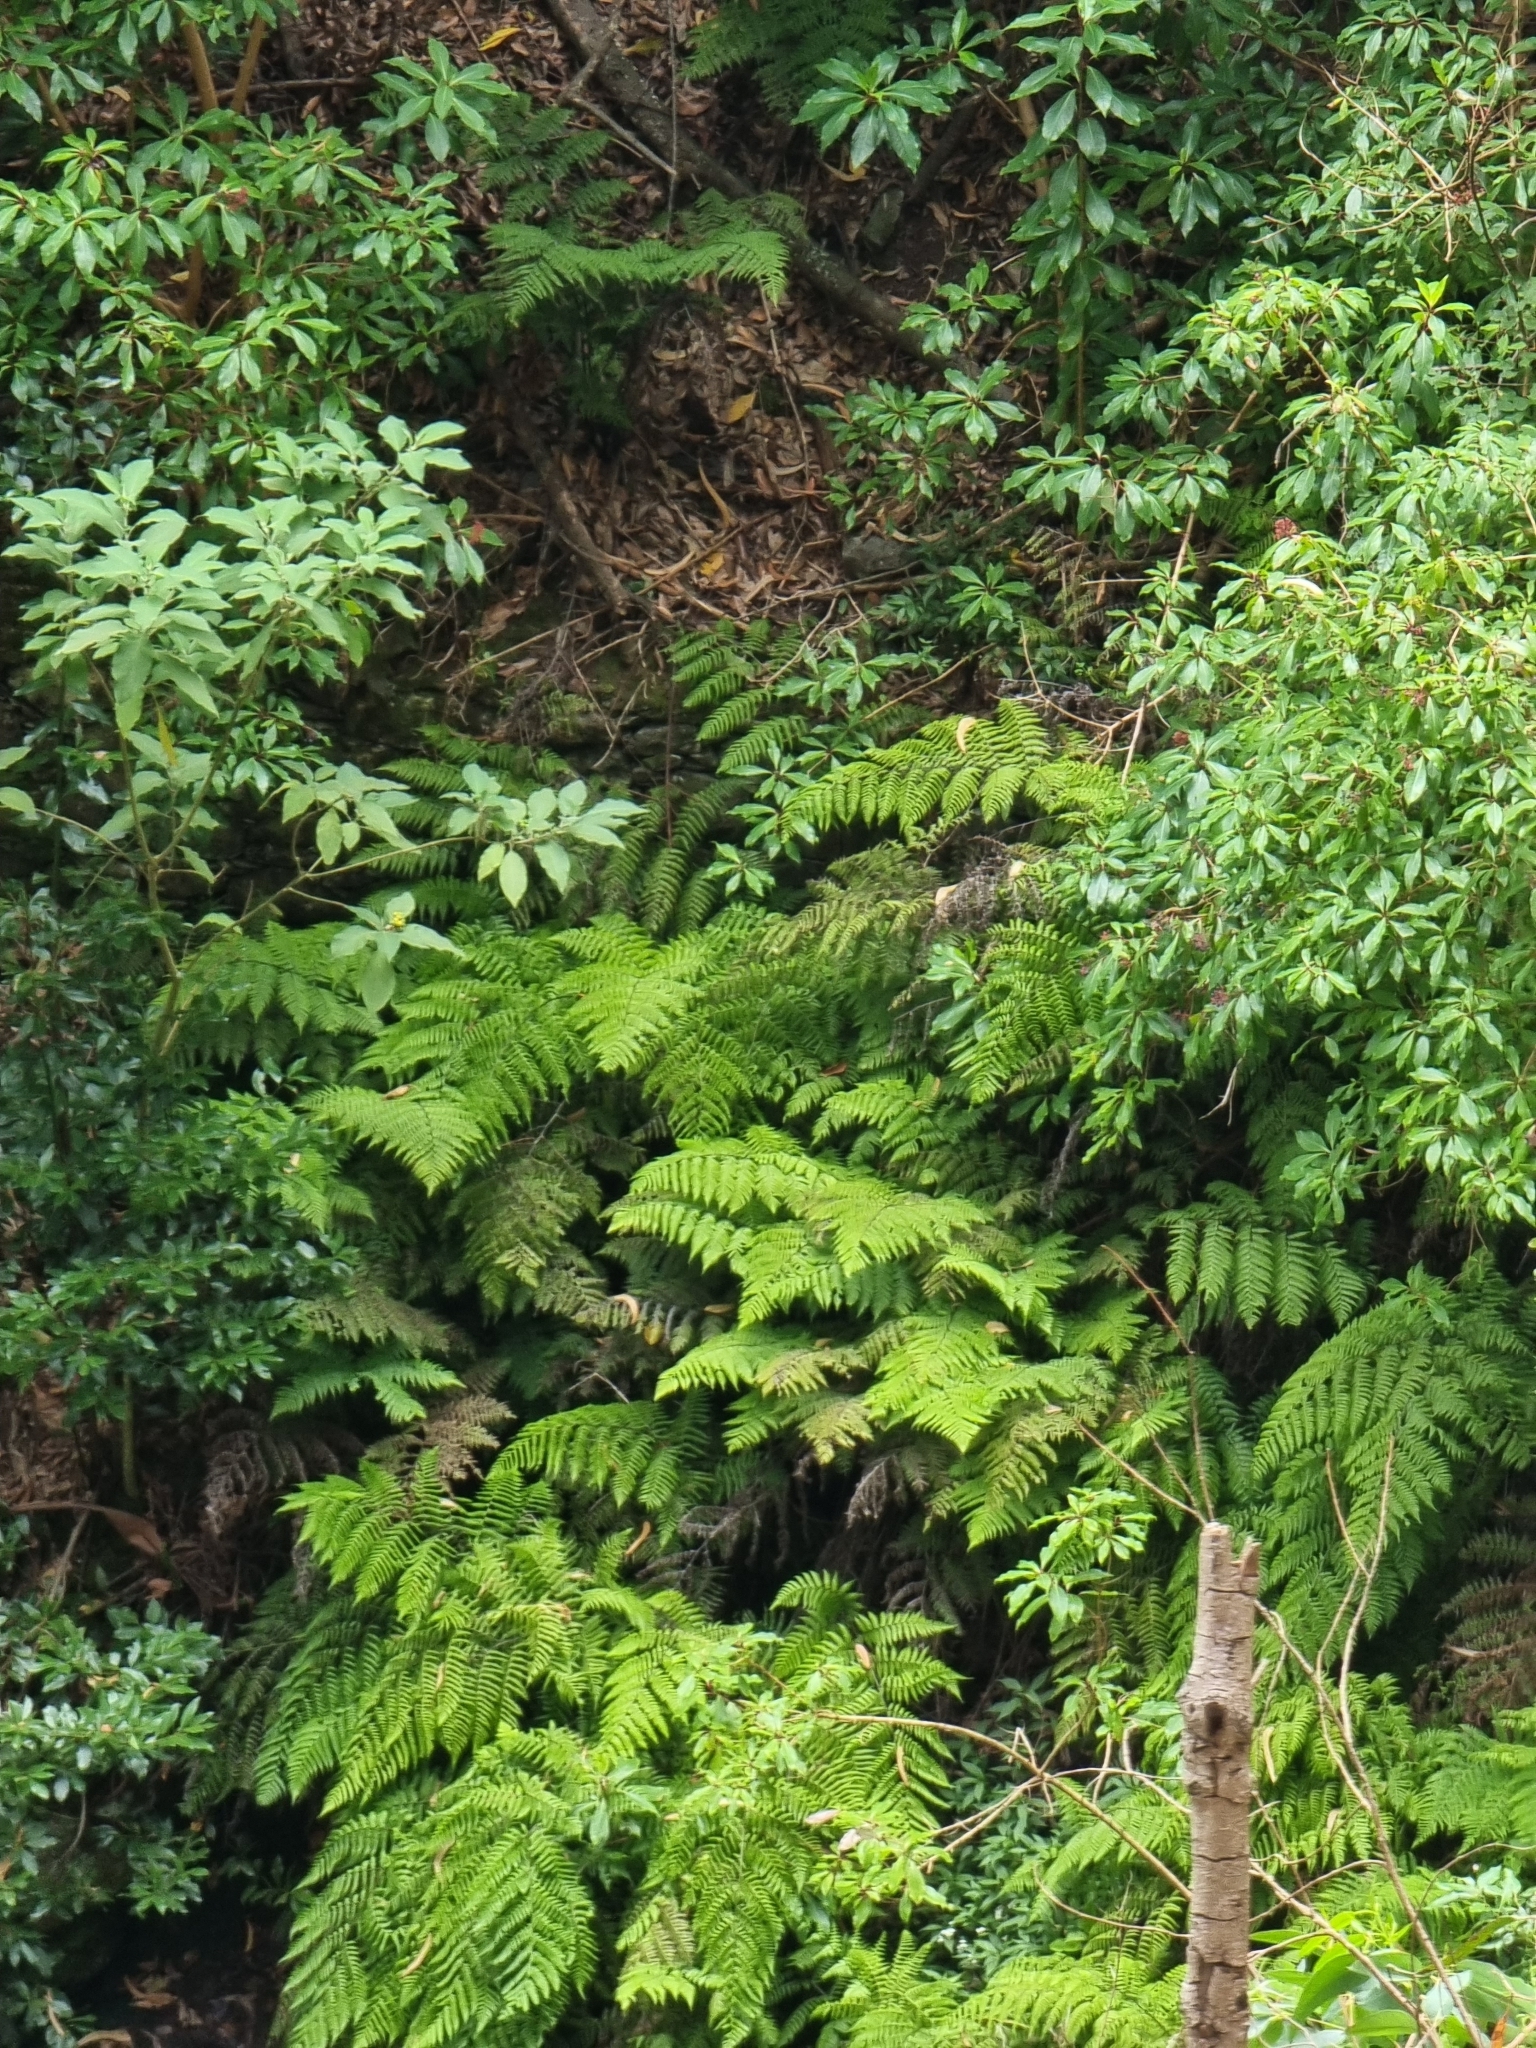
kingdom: Plantae
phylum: Tracheophyta
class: Polypodiopsida
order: Polypodiales
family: Athyriaceae
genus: Diplazium
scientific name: Diplazium caudatum
